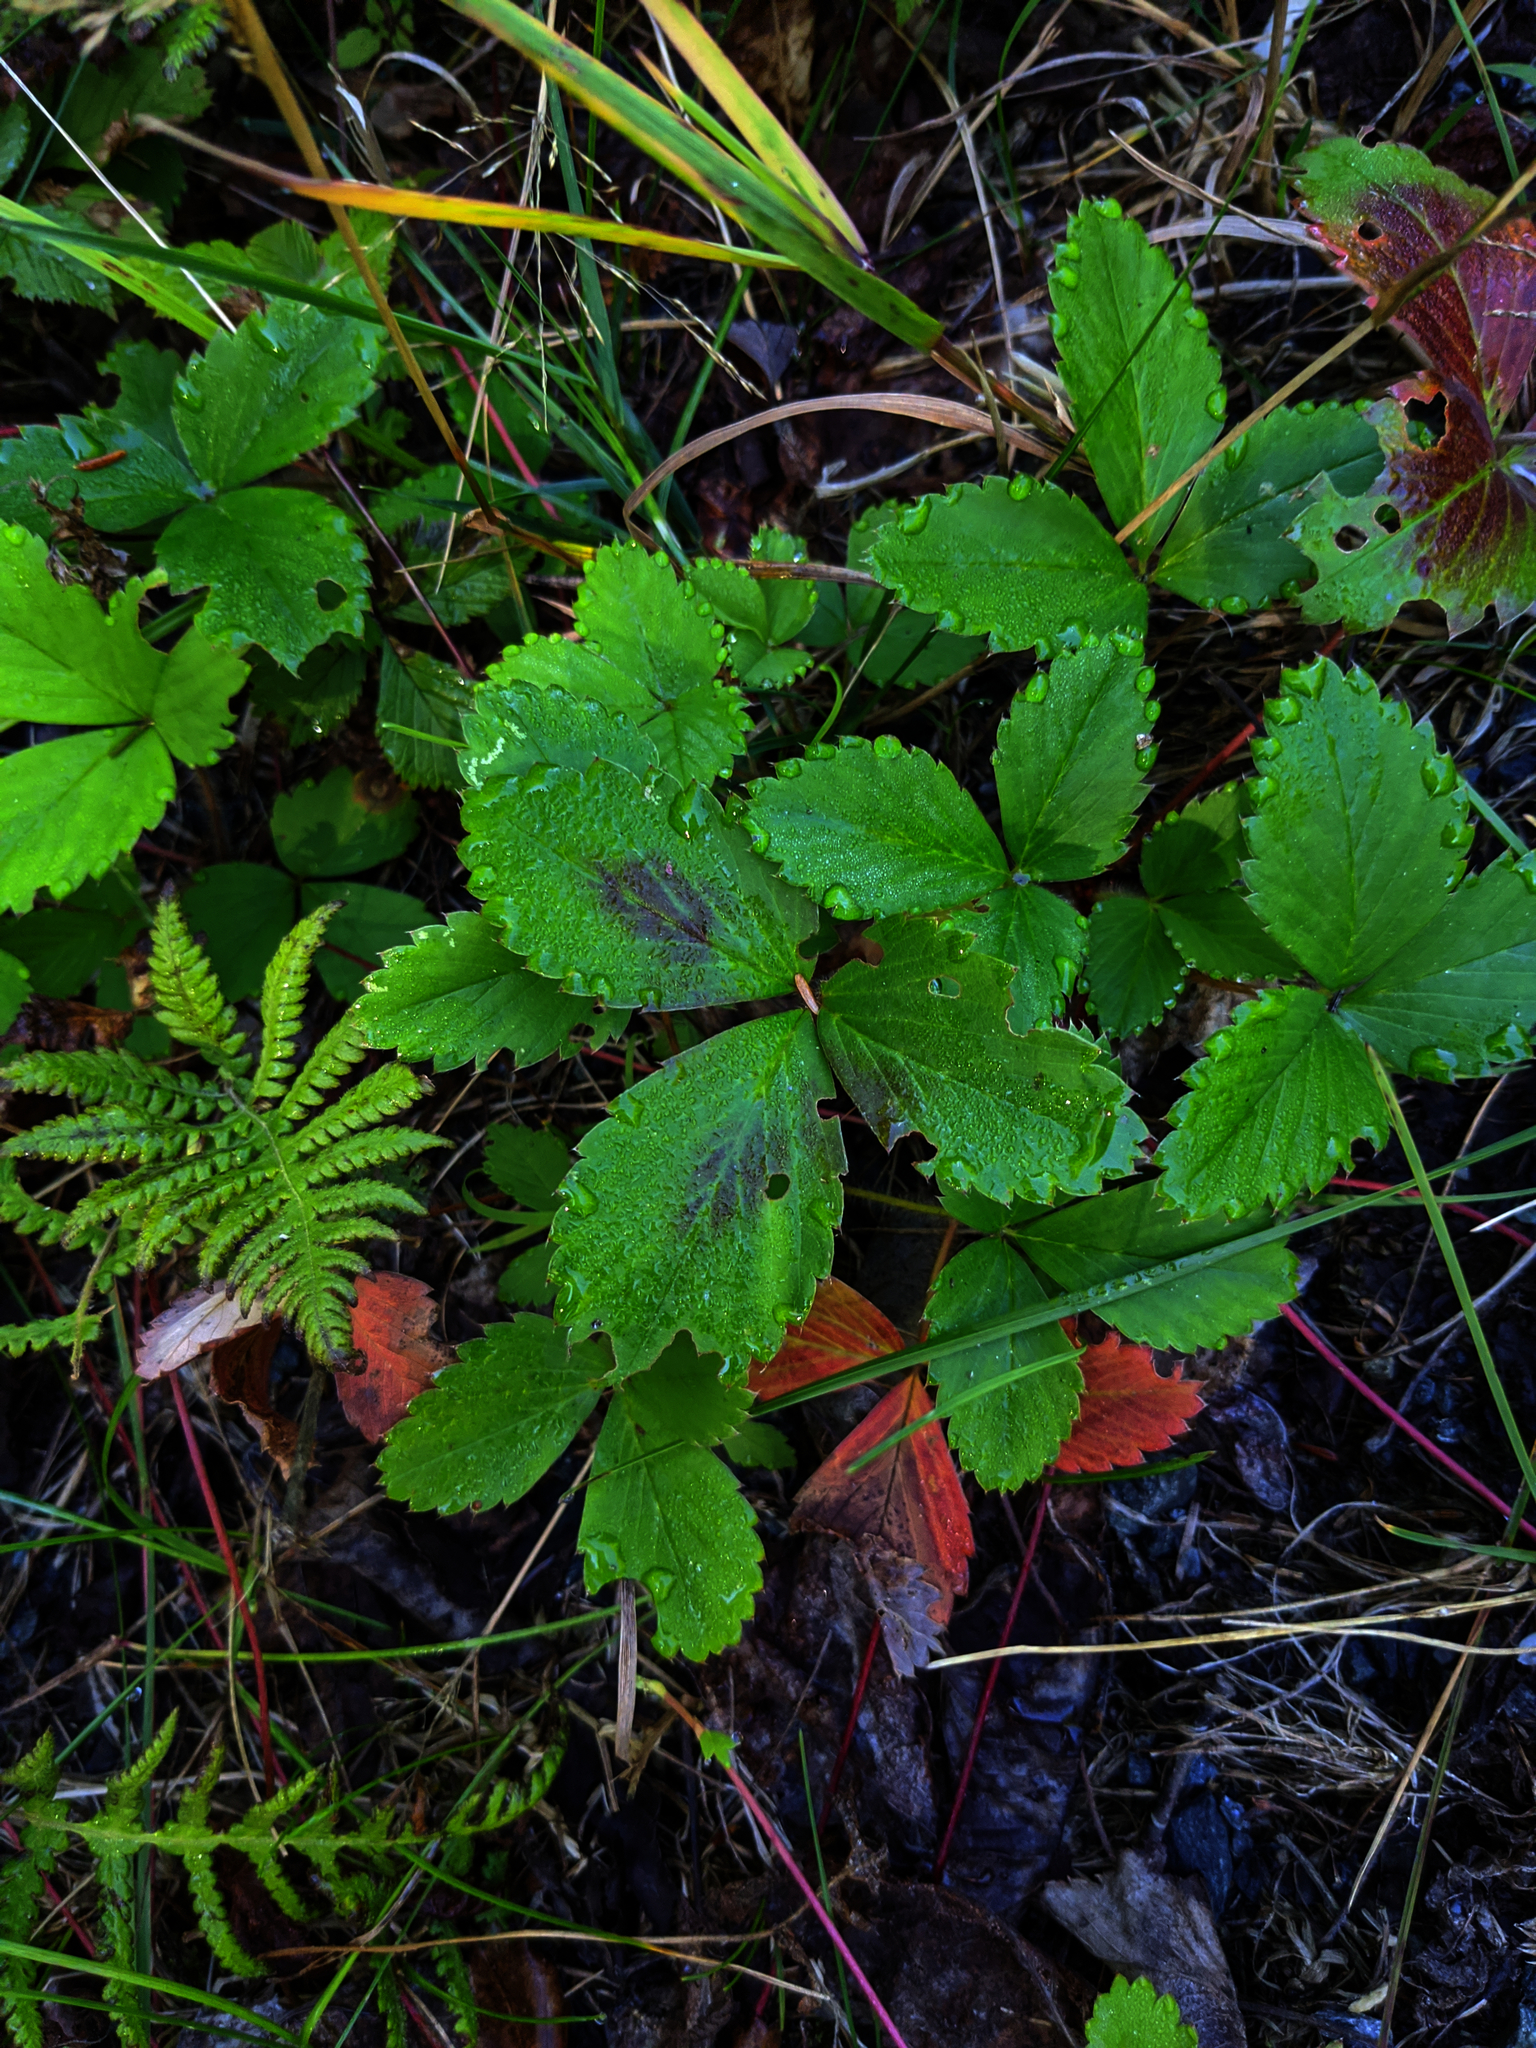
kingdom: Plantae
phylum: Tracheophyta
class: Polypodiopsida
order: Polypodiales
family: Thelypteridaceae
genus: Phegopteris
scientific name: Phegopteris connectilis
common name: Beech fern
